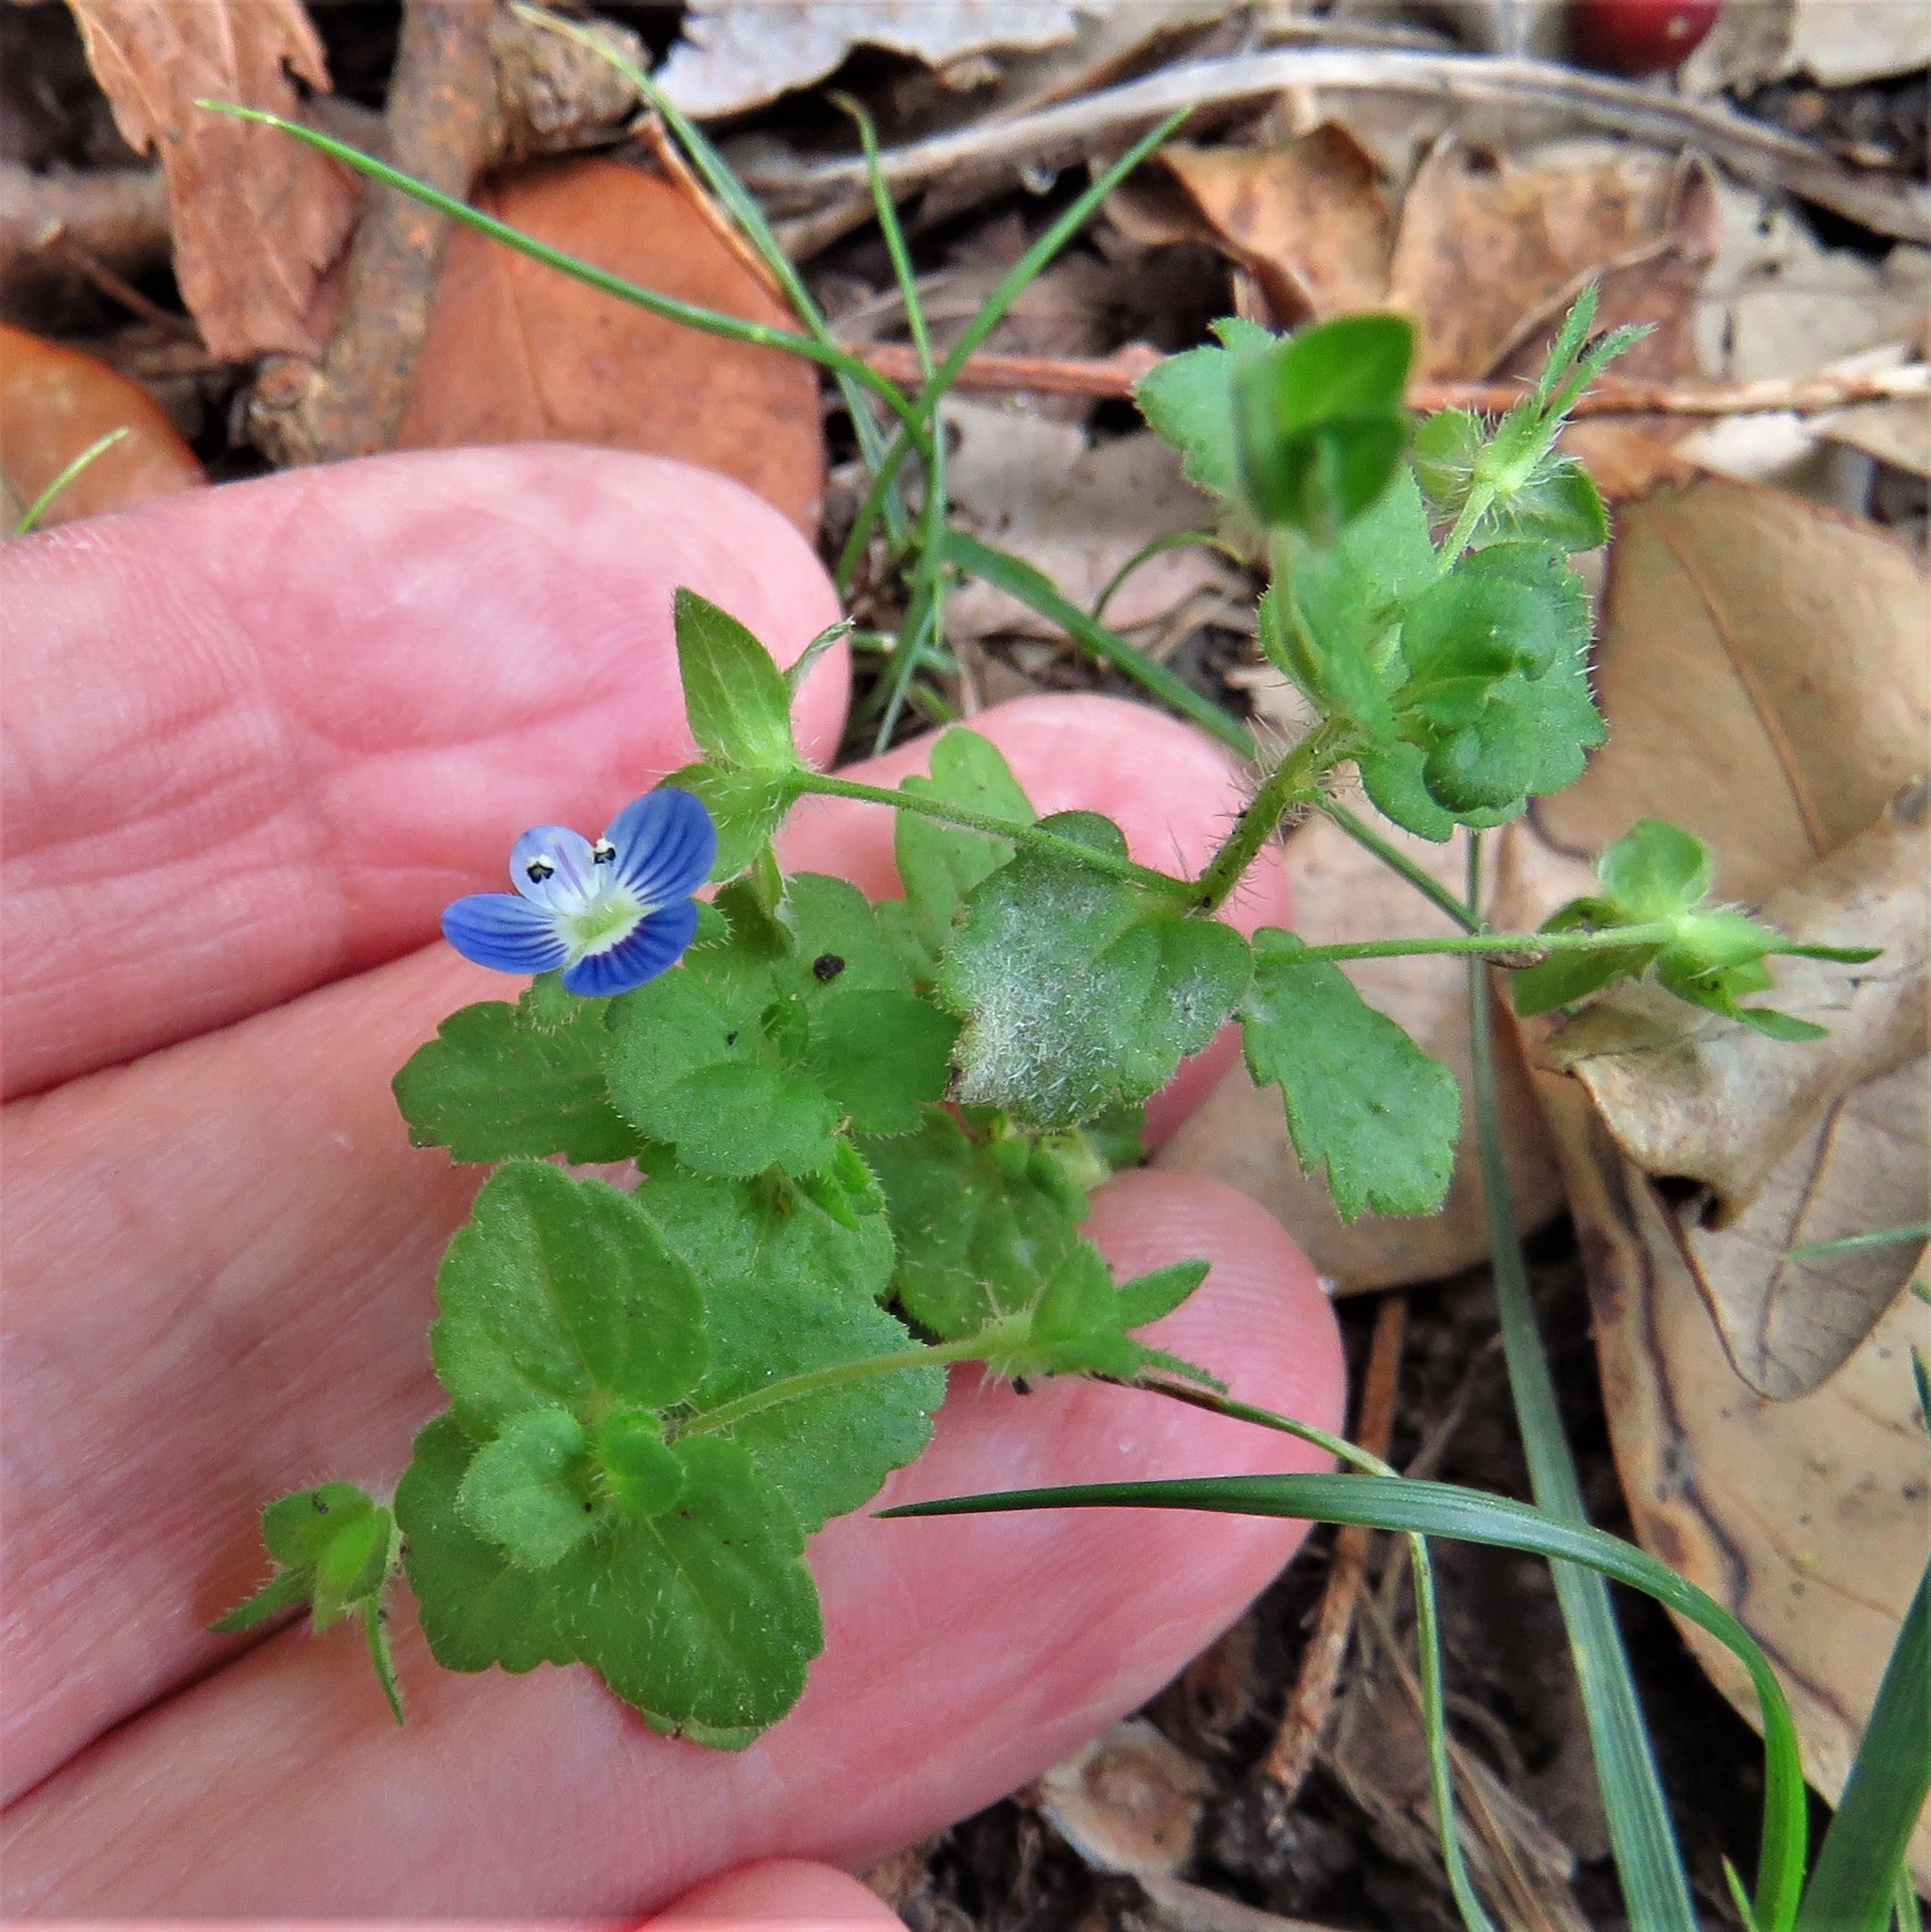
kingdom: Plantae
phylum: Tracheophyta
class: Magnoliopsida
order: Lamiales
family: Plantaginaceae
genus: Veronica
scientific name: Veronica persica
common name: Common field-speedwell
